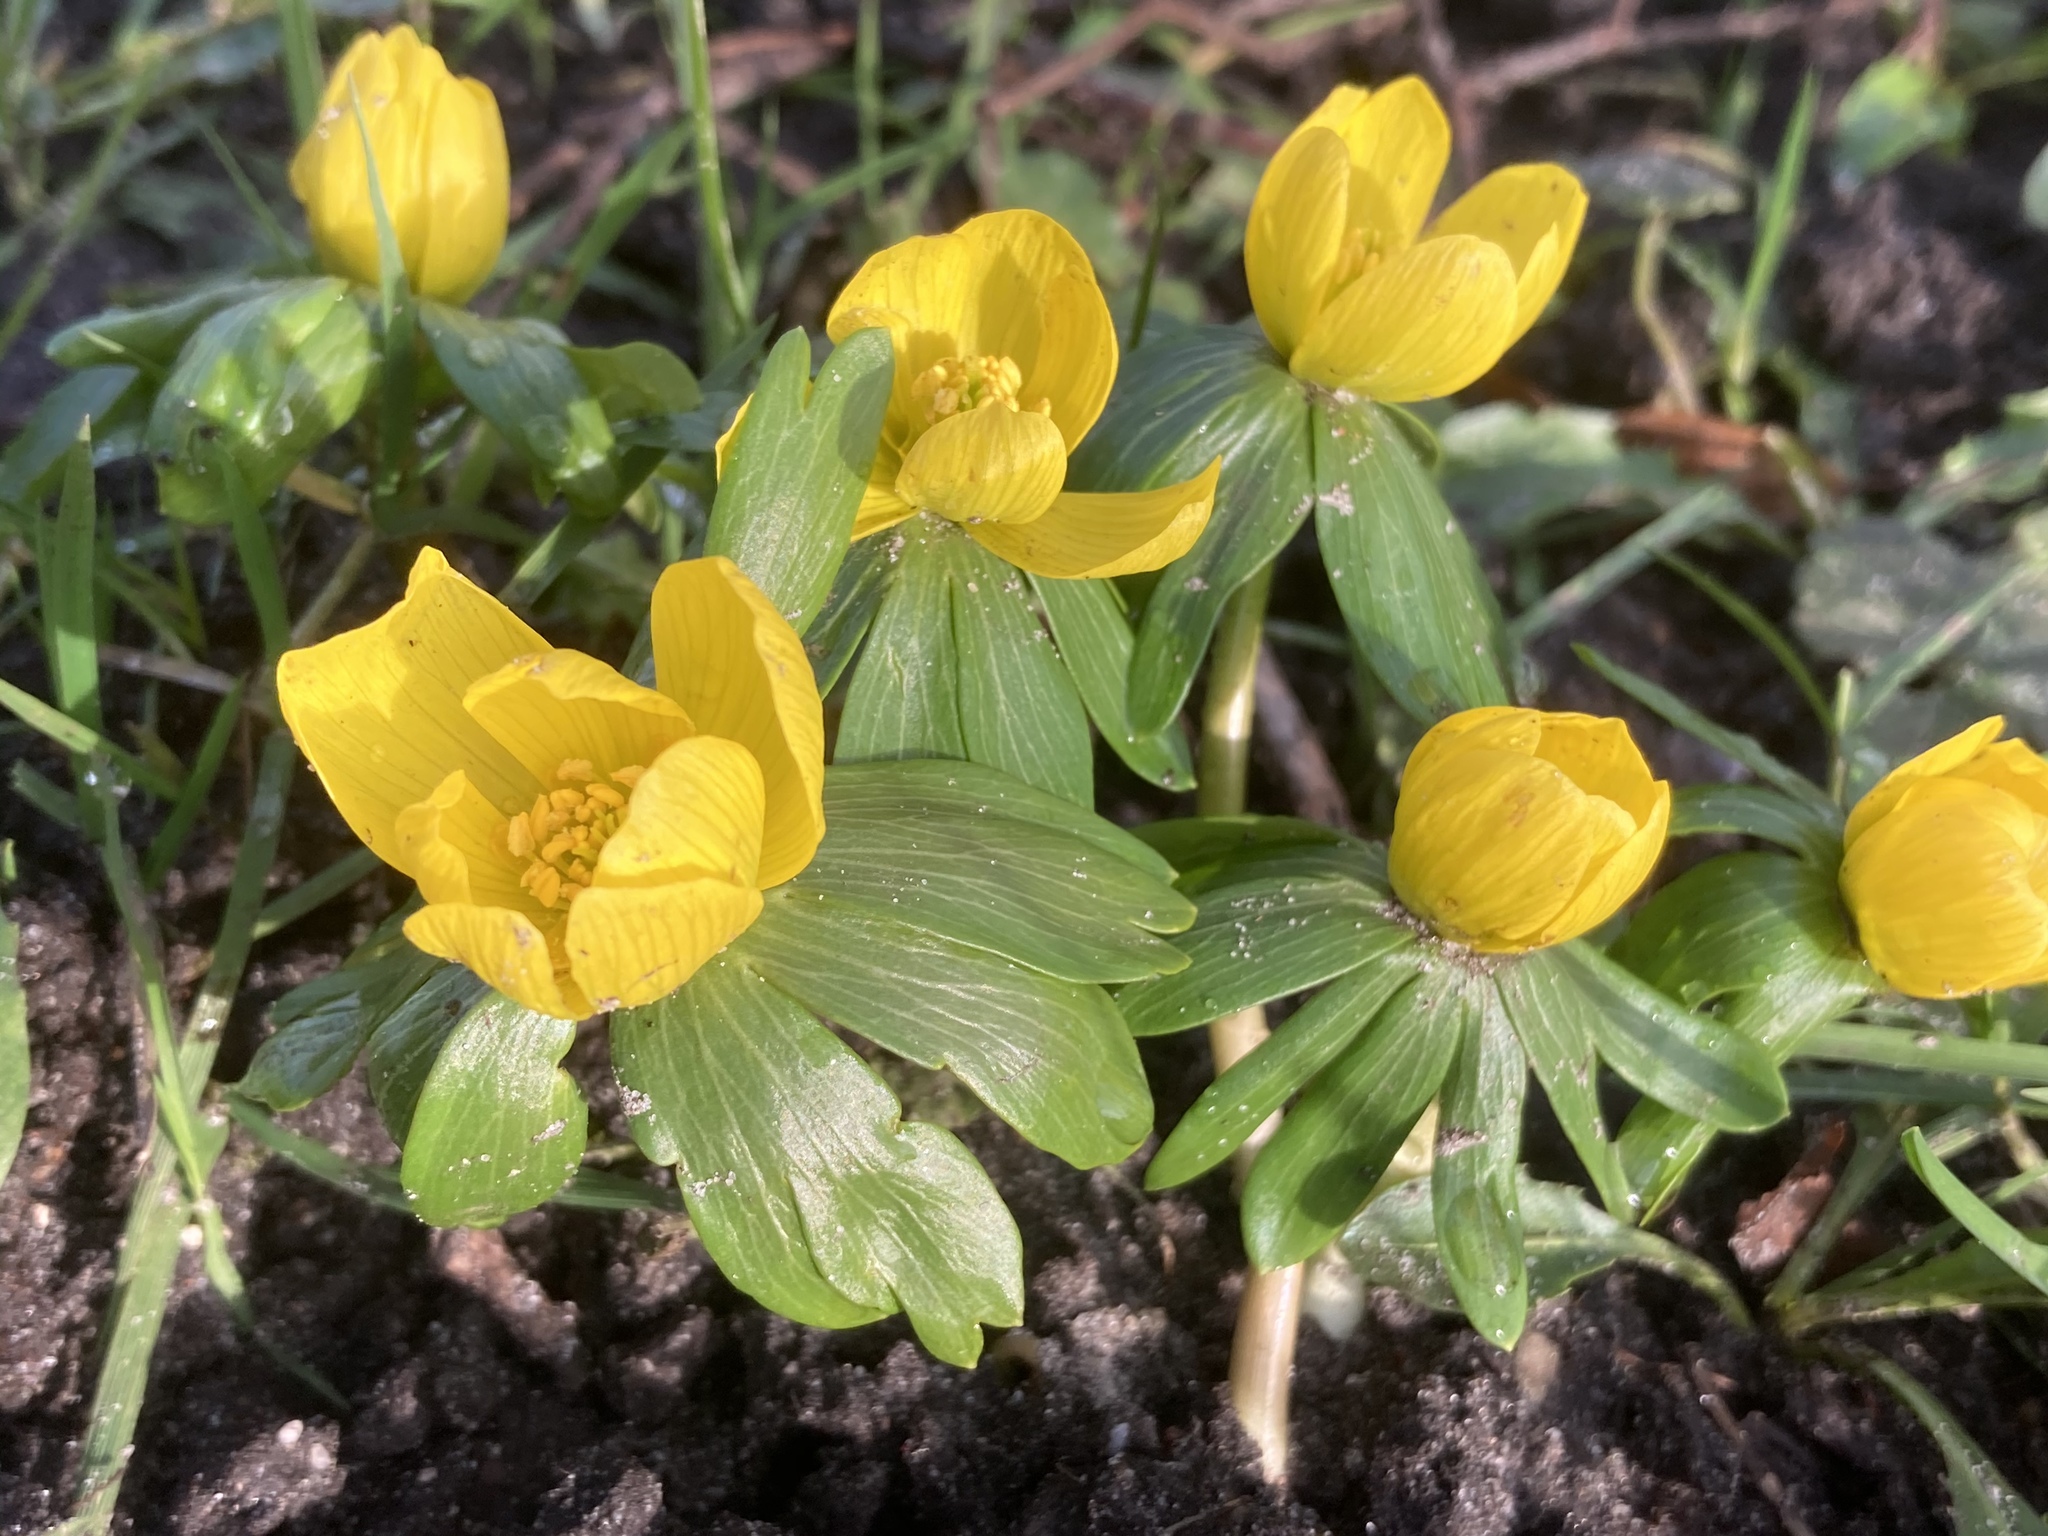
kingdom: Plantae
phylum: Tracheophyta
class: Magnoliopsida
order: Ranunculales
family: Ranunculaceae
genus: Eranthis
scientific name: Eranthis hyemalis
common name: Winter aconite
